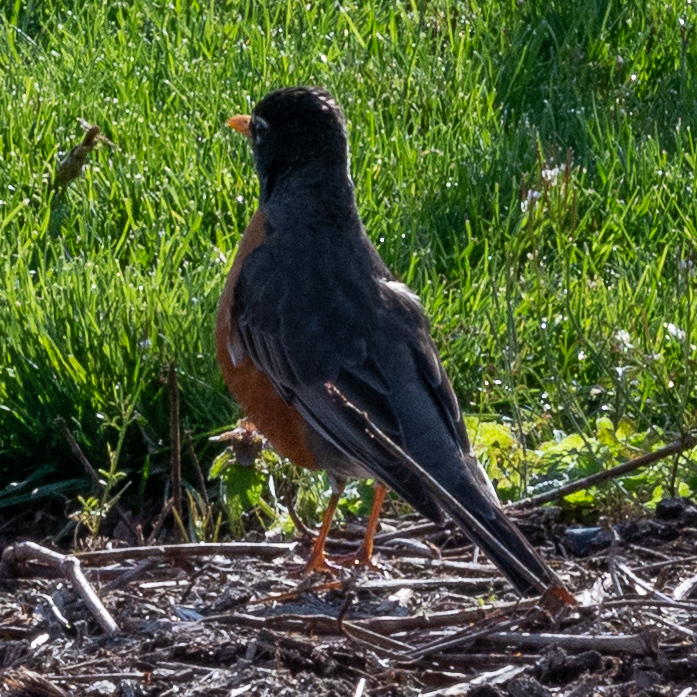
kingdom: Animalia
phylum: Chordata
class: Aves
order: Passeriformes
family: Turdidae
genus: Turdus
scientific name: Turdus migratorius
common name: American robin
